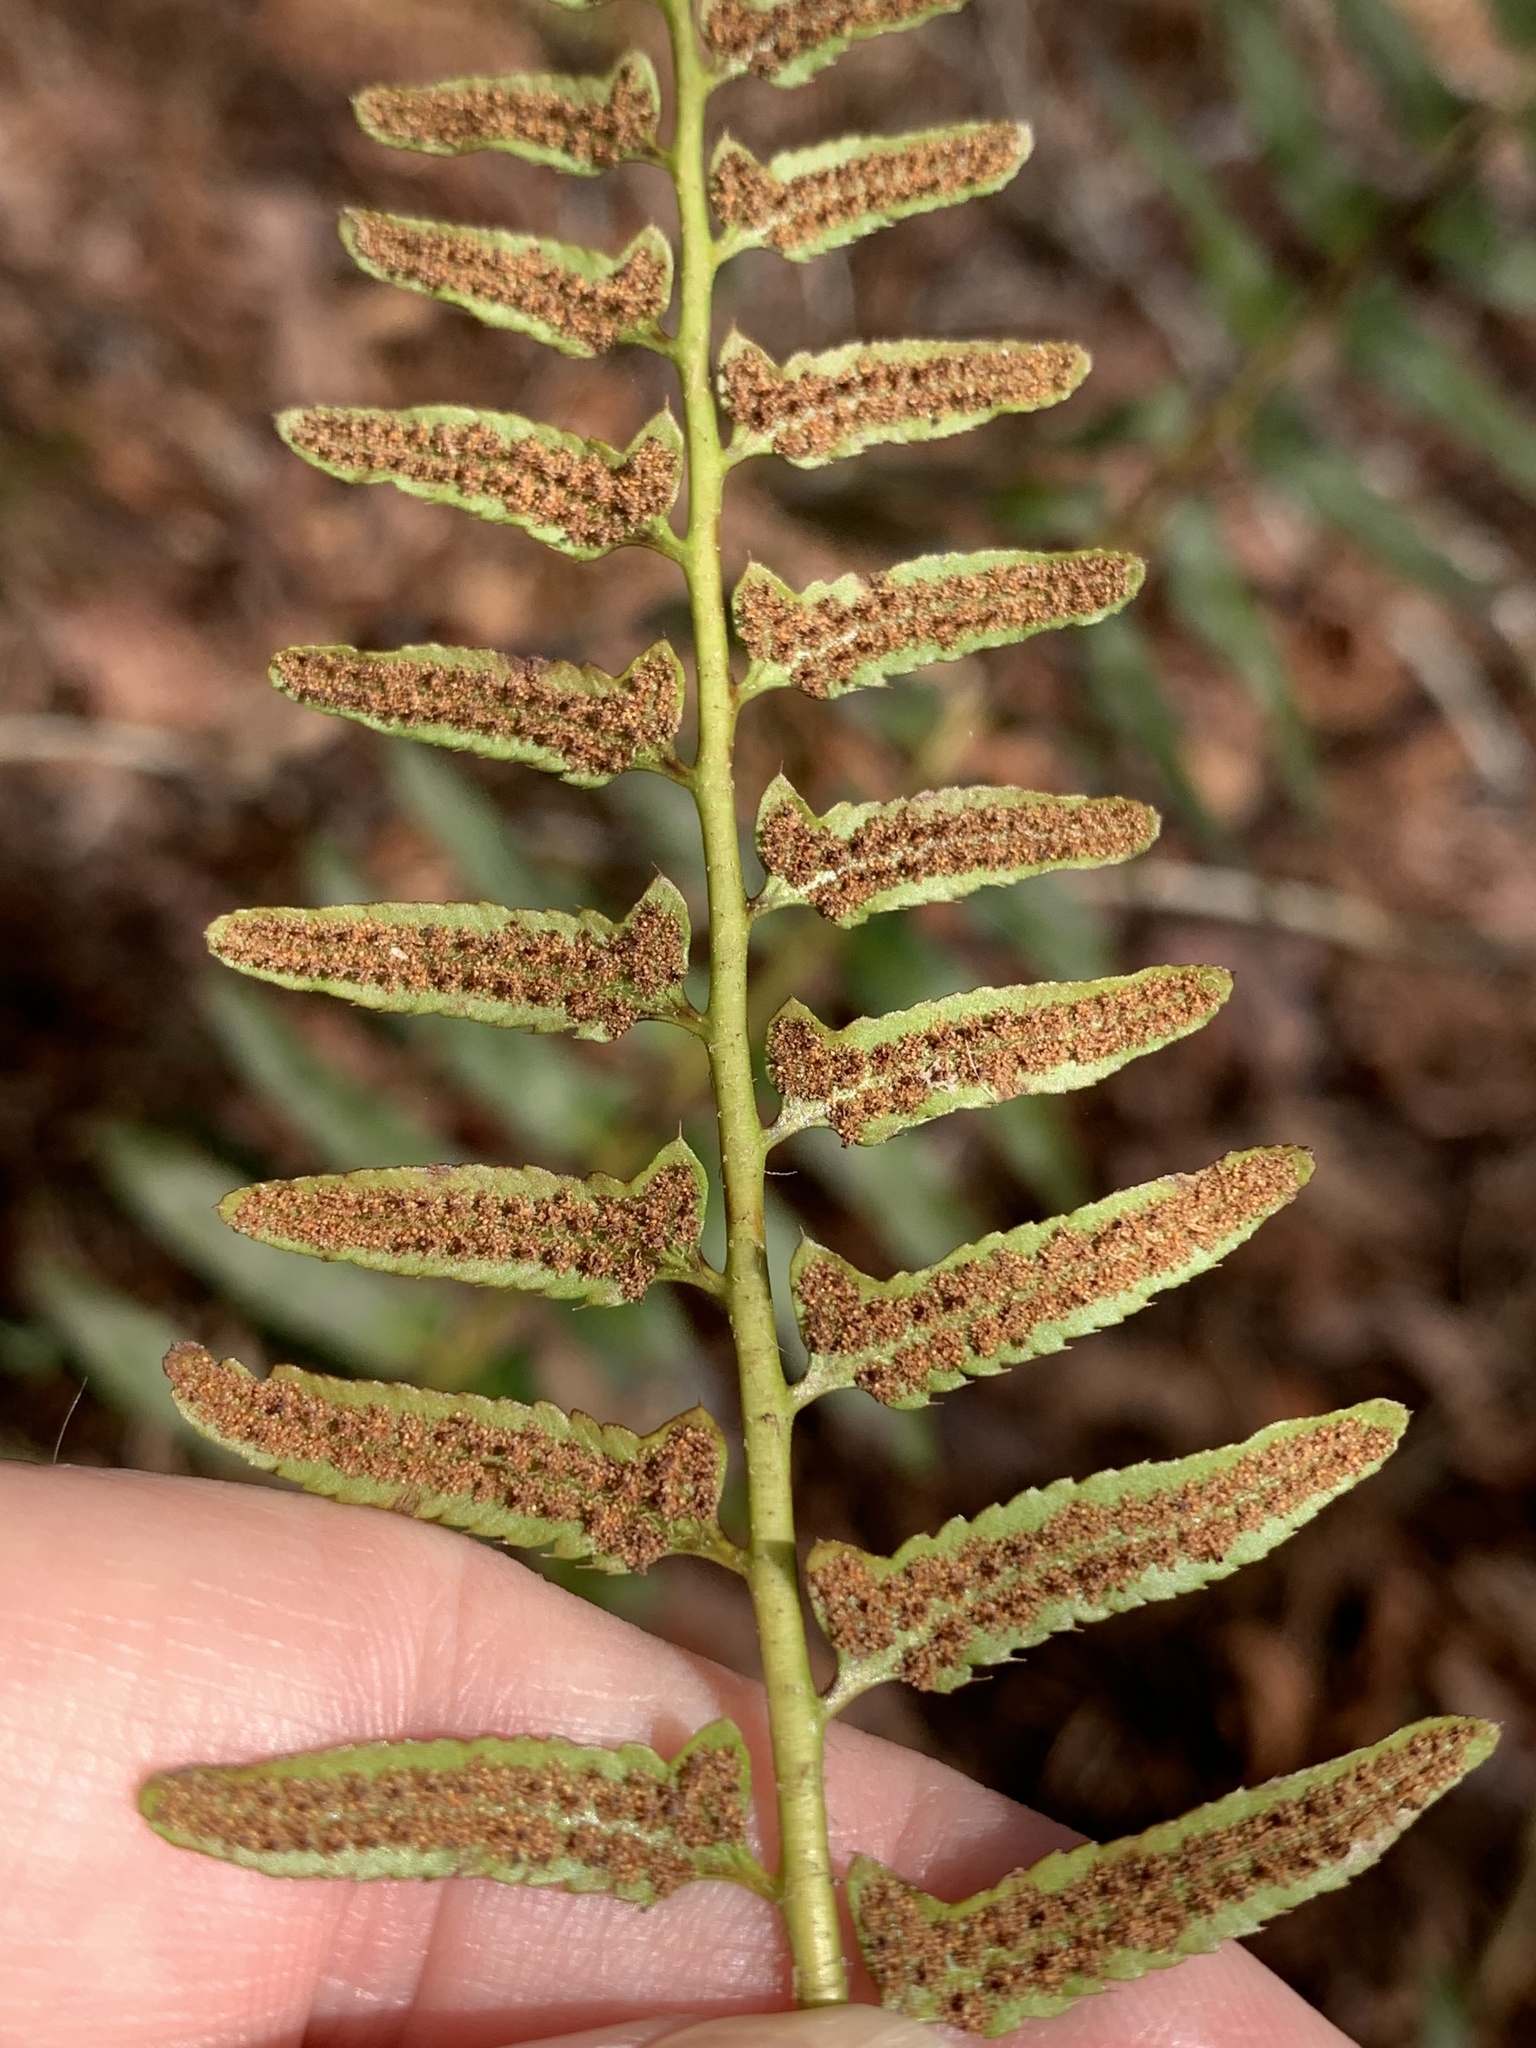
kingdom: Plantae
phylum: Tracheophyta
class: Polypodiopsida
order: Polypodiales
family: Dryopteridaceae
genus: Polystichum
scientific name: Polystichum acrostichoides
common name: Christmas fern
